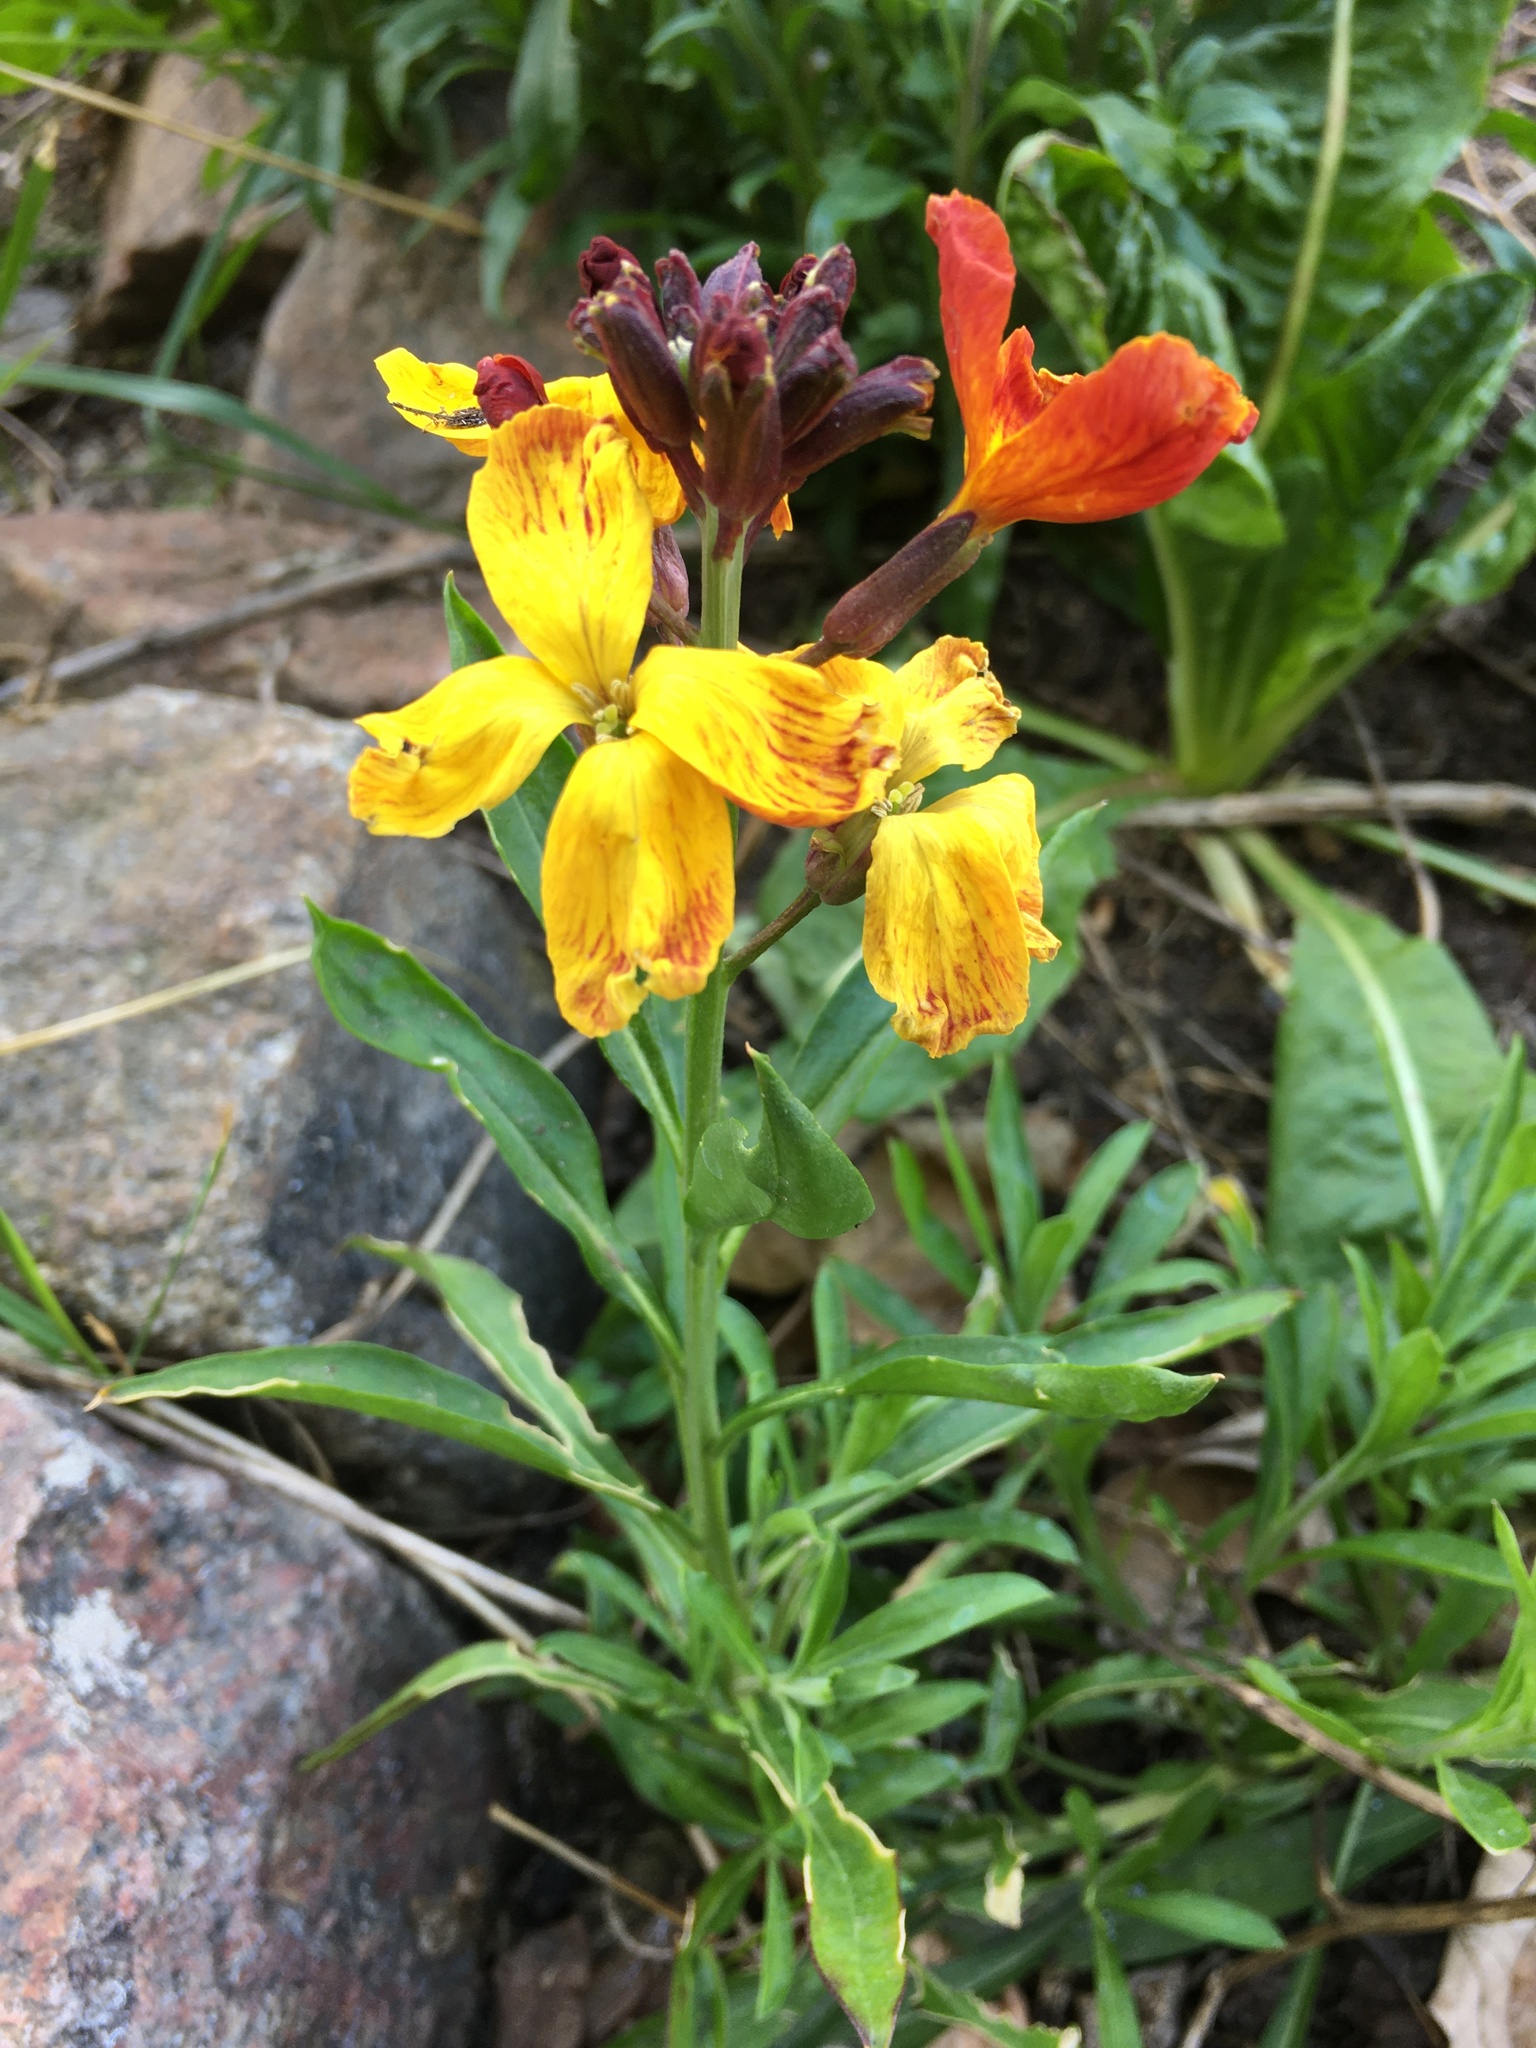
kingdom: Plantae
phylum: Tracheophyta
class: Magnoliopsida
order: Brassicales
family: Brassicaceae
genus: Erysimum
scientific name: Erysimum cheiri
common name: Wallflower
